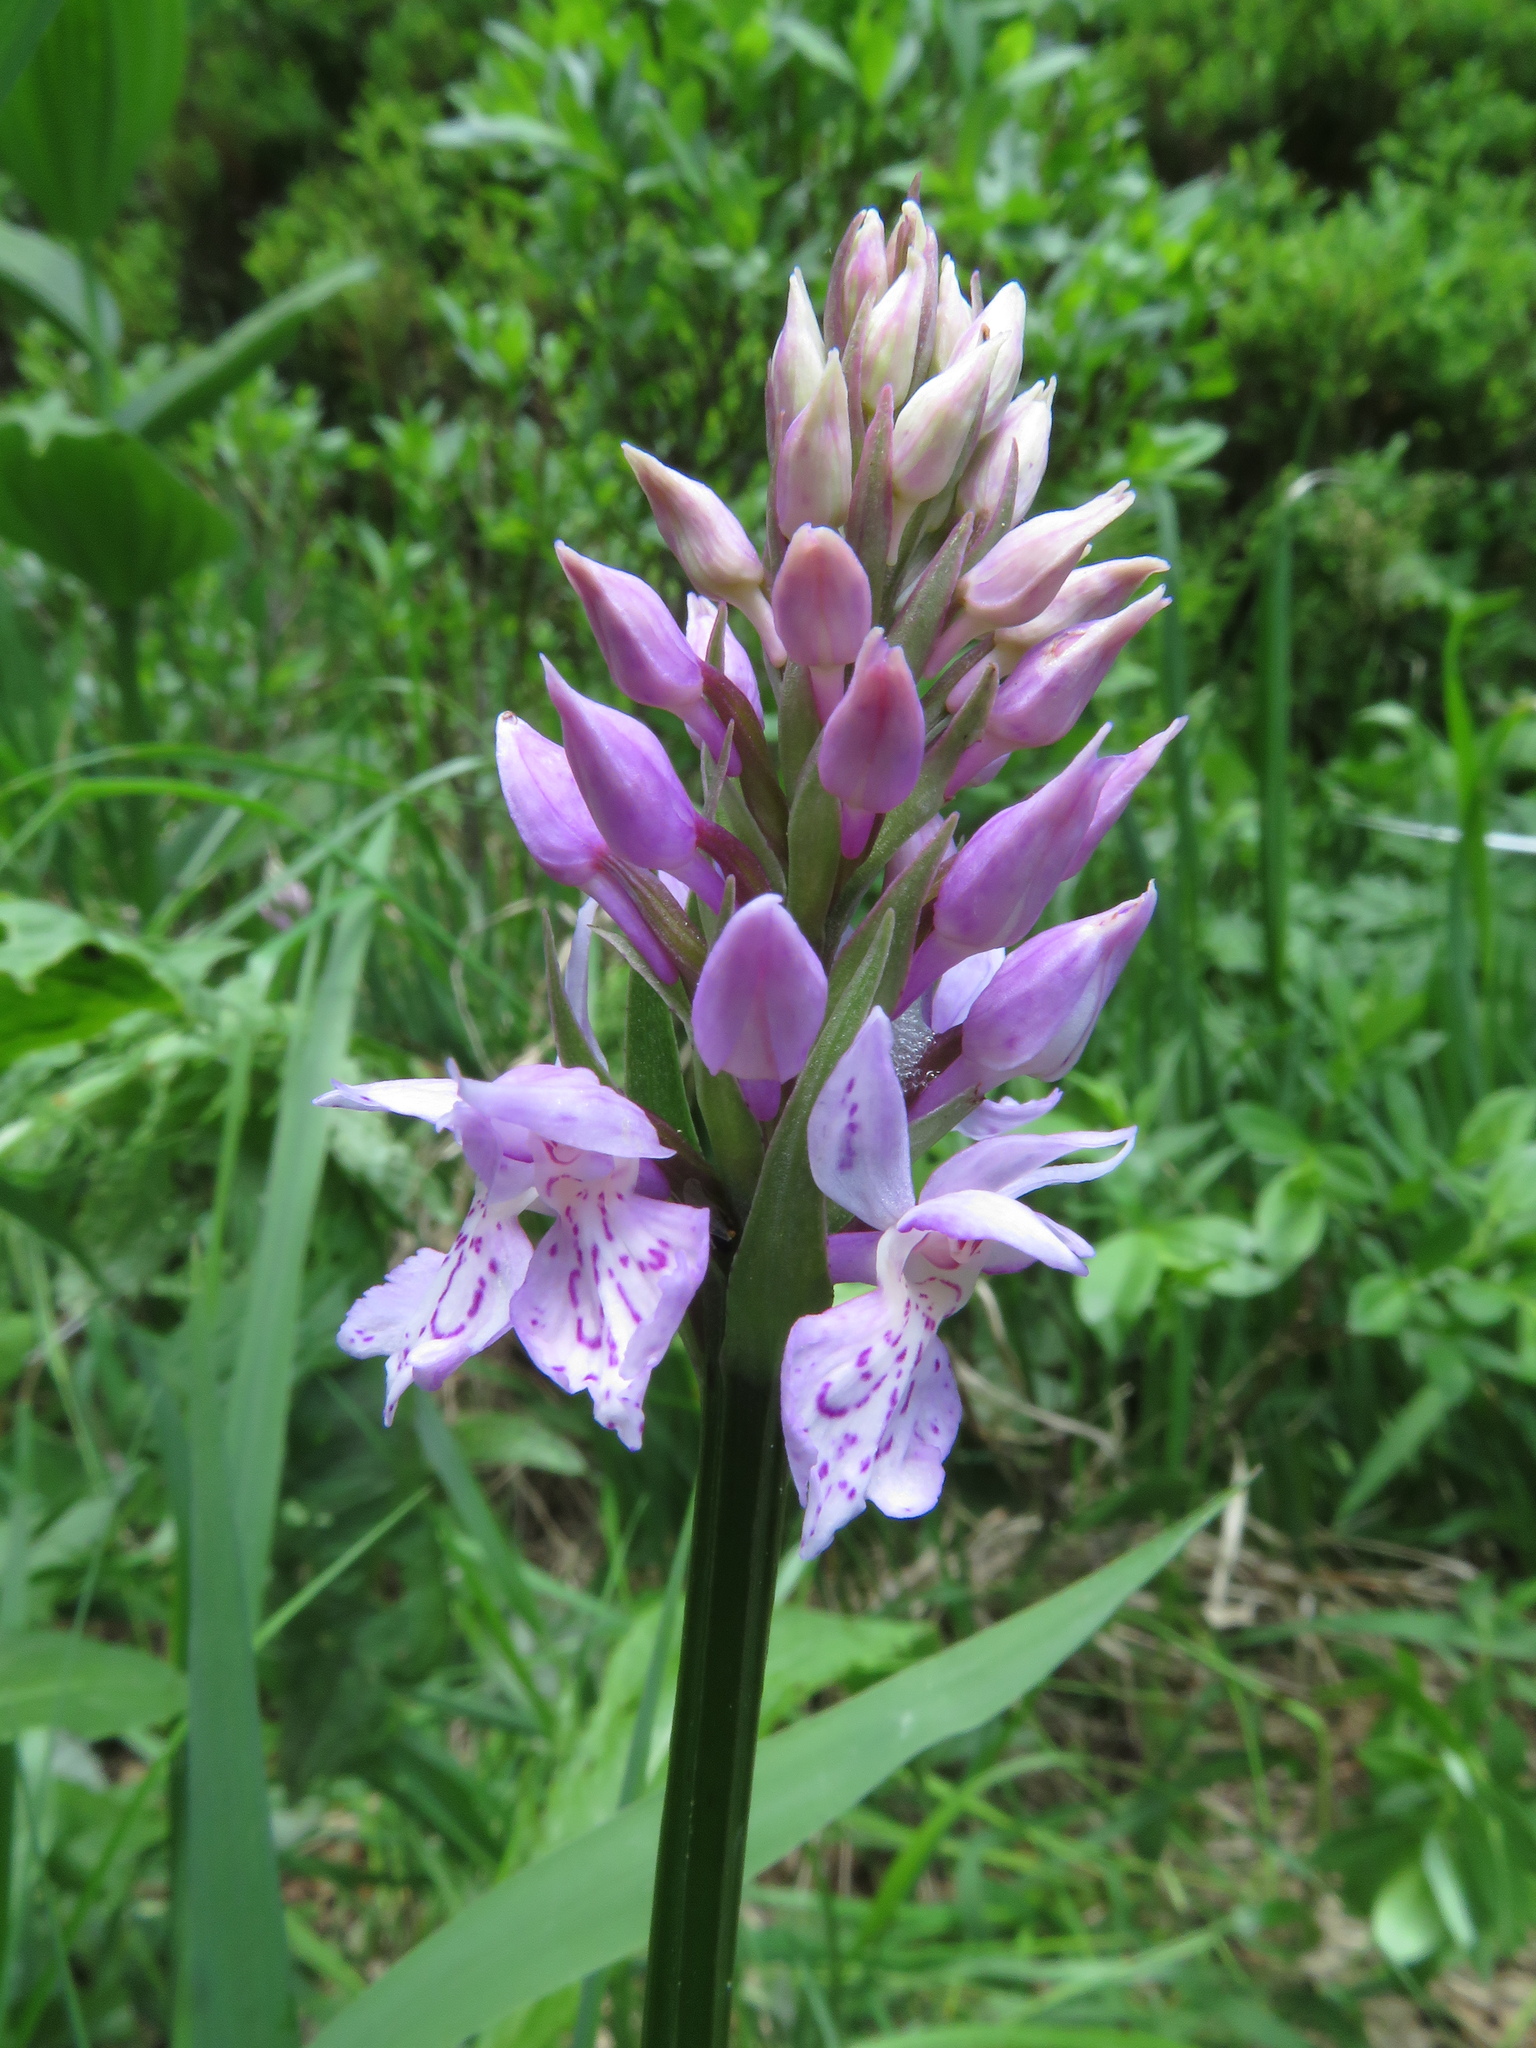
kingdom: Plantae
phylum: Tracheophyta
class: Liliopsida
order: Asparagales
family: Orchidaceae
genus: Dactylorhiza
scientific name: Dactylorhiza maculata
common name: Heath spotted-orchid
